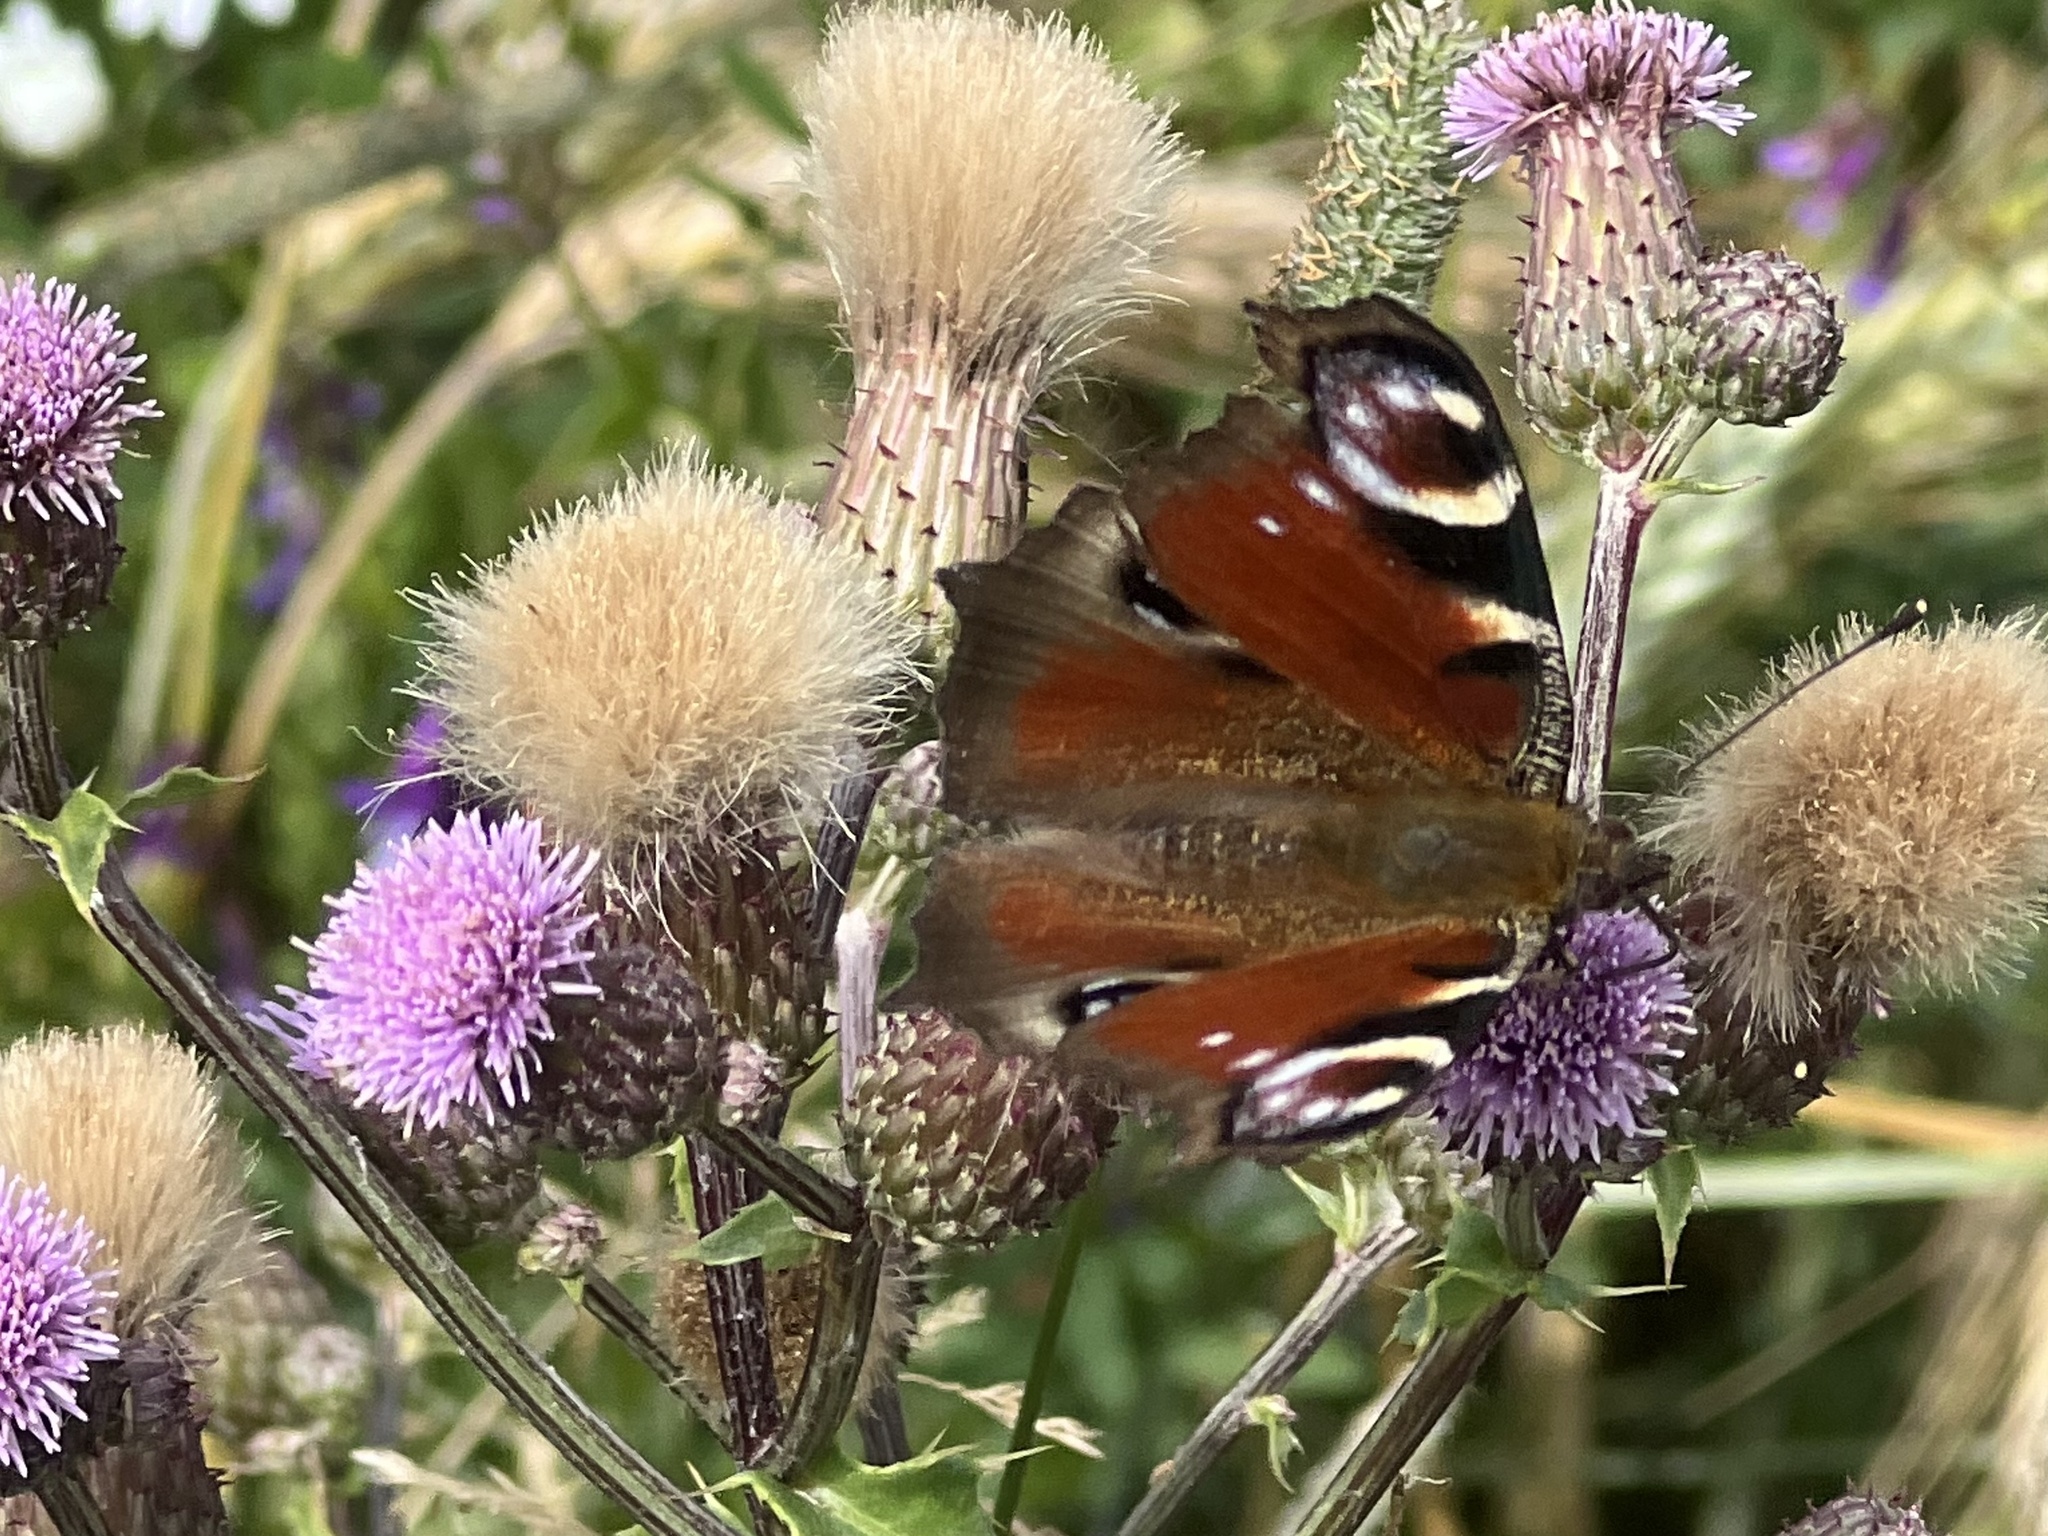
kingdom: Animalia
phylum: Arthropoda
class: Insecta
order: Lepidoptera
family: Nymphalidae
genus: Aglais
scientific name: Aglais io
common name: Peacock
